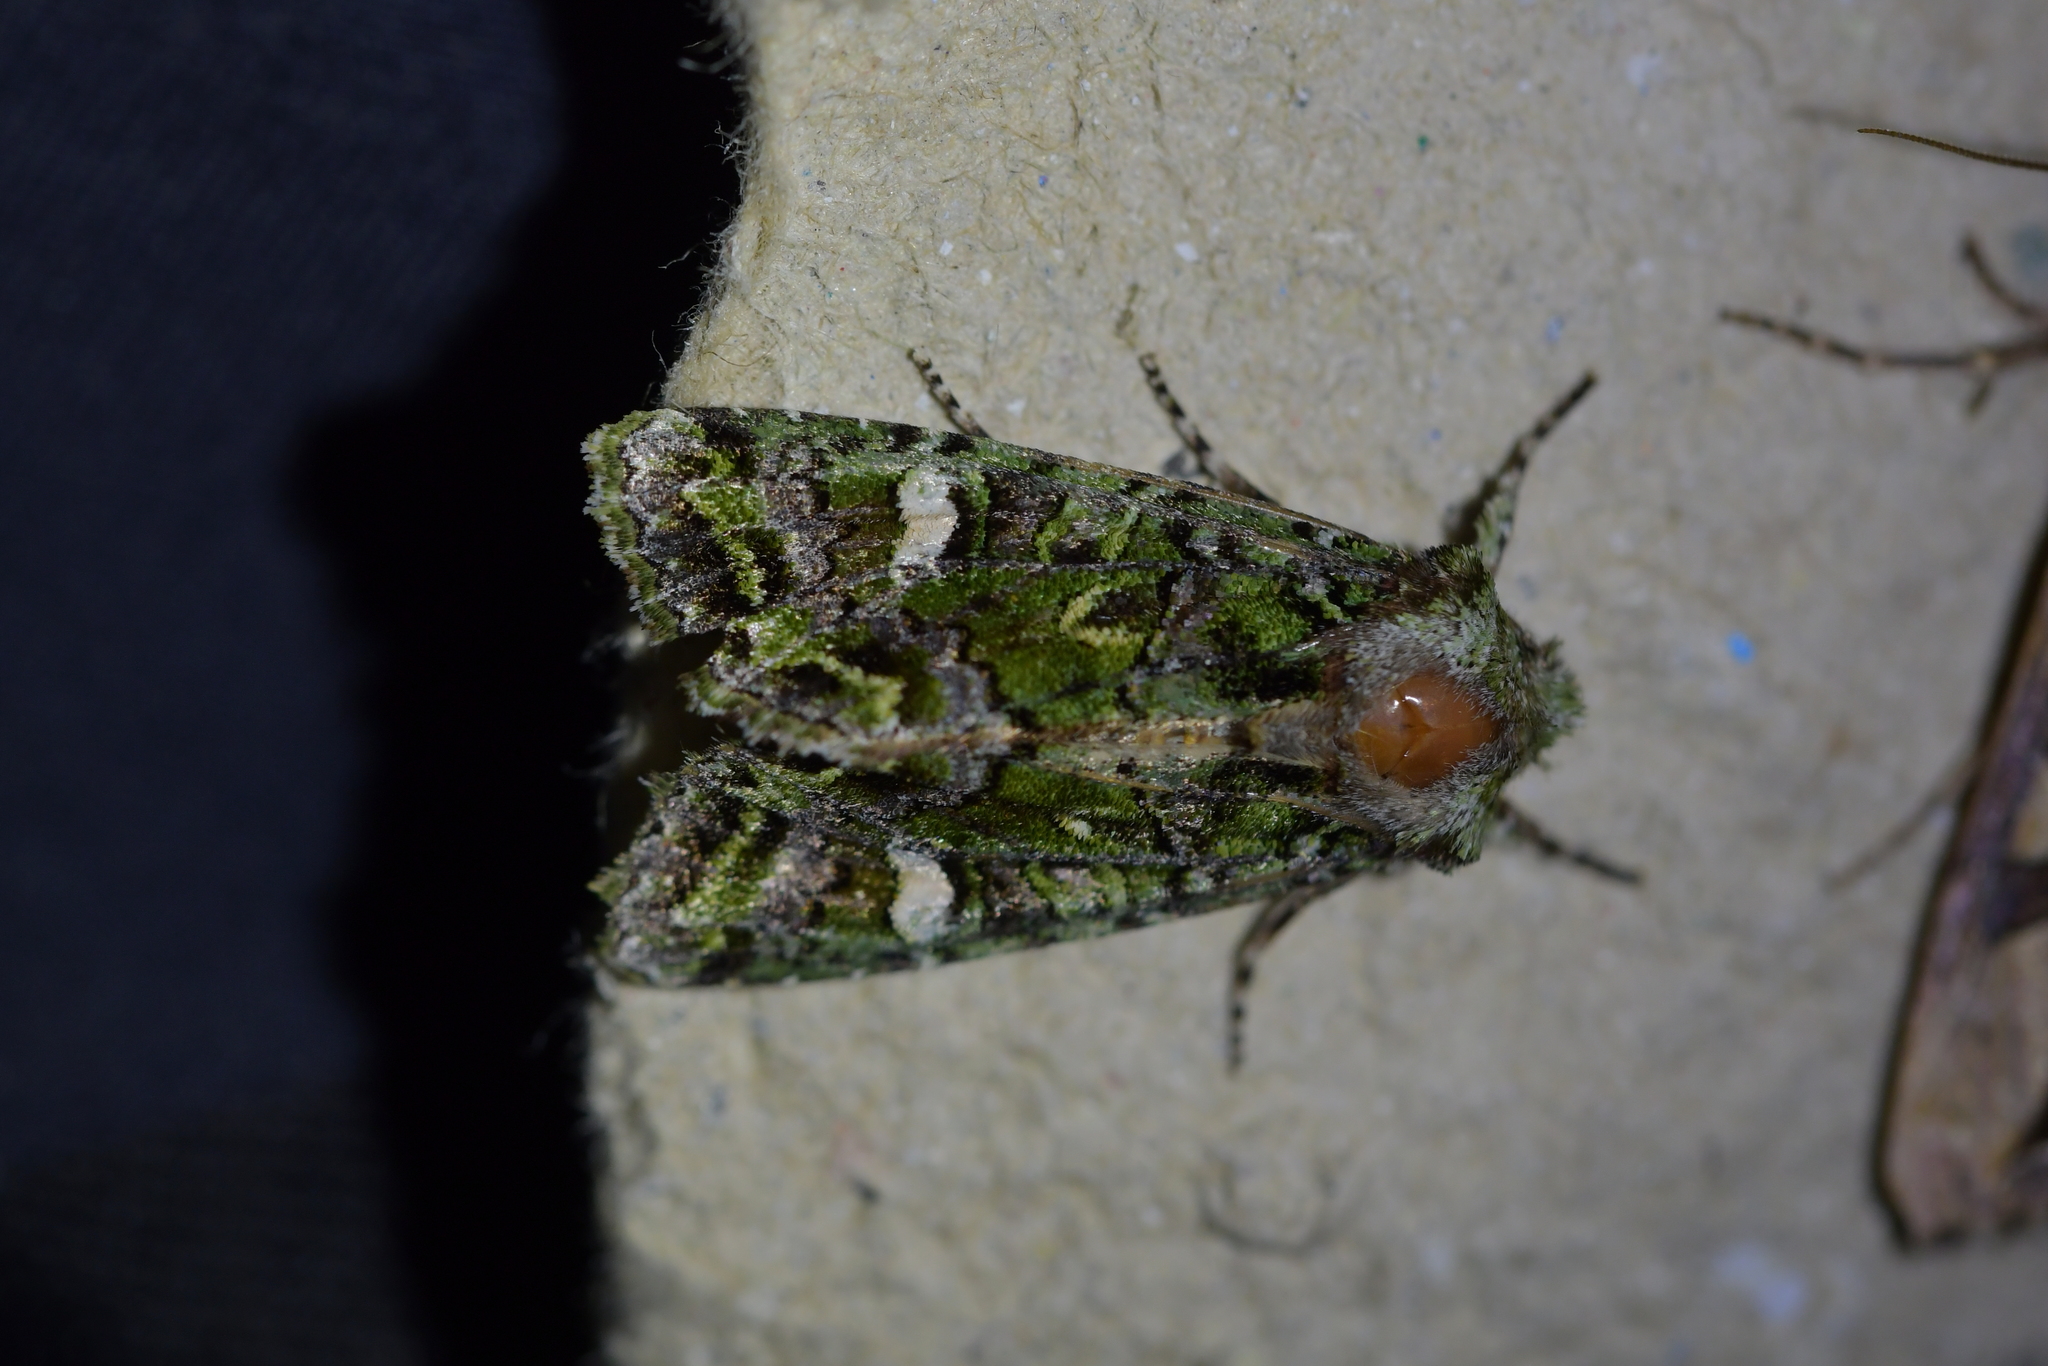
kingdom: Animalia
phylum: Arthropoda
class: Insecta
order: Lepidoptera
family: Noctuidae
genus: Ichneutica
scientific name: Ichneutica
